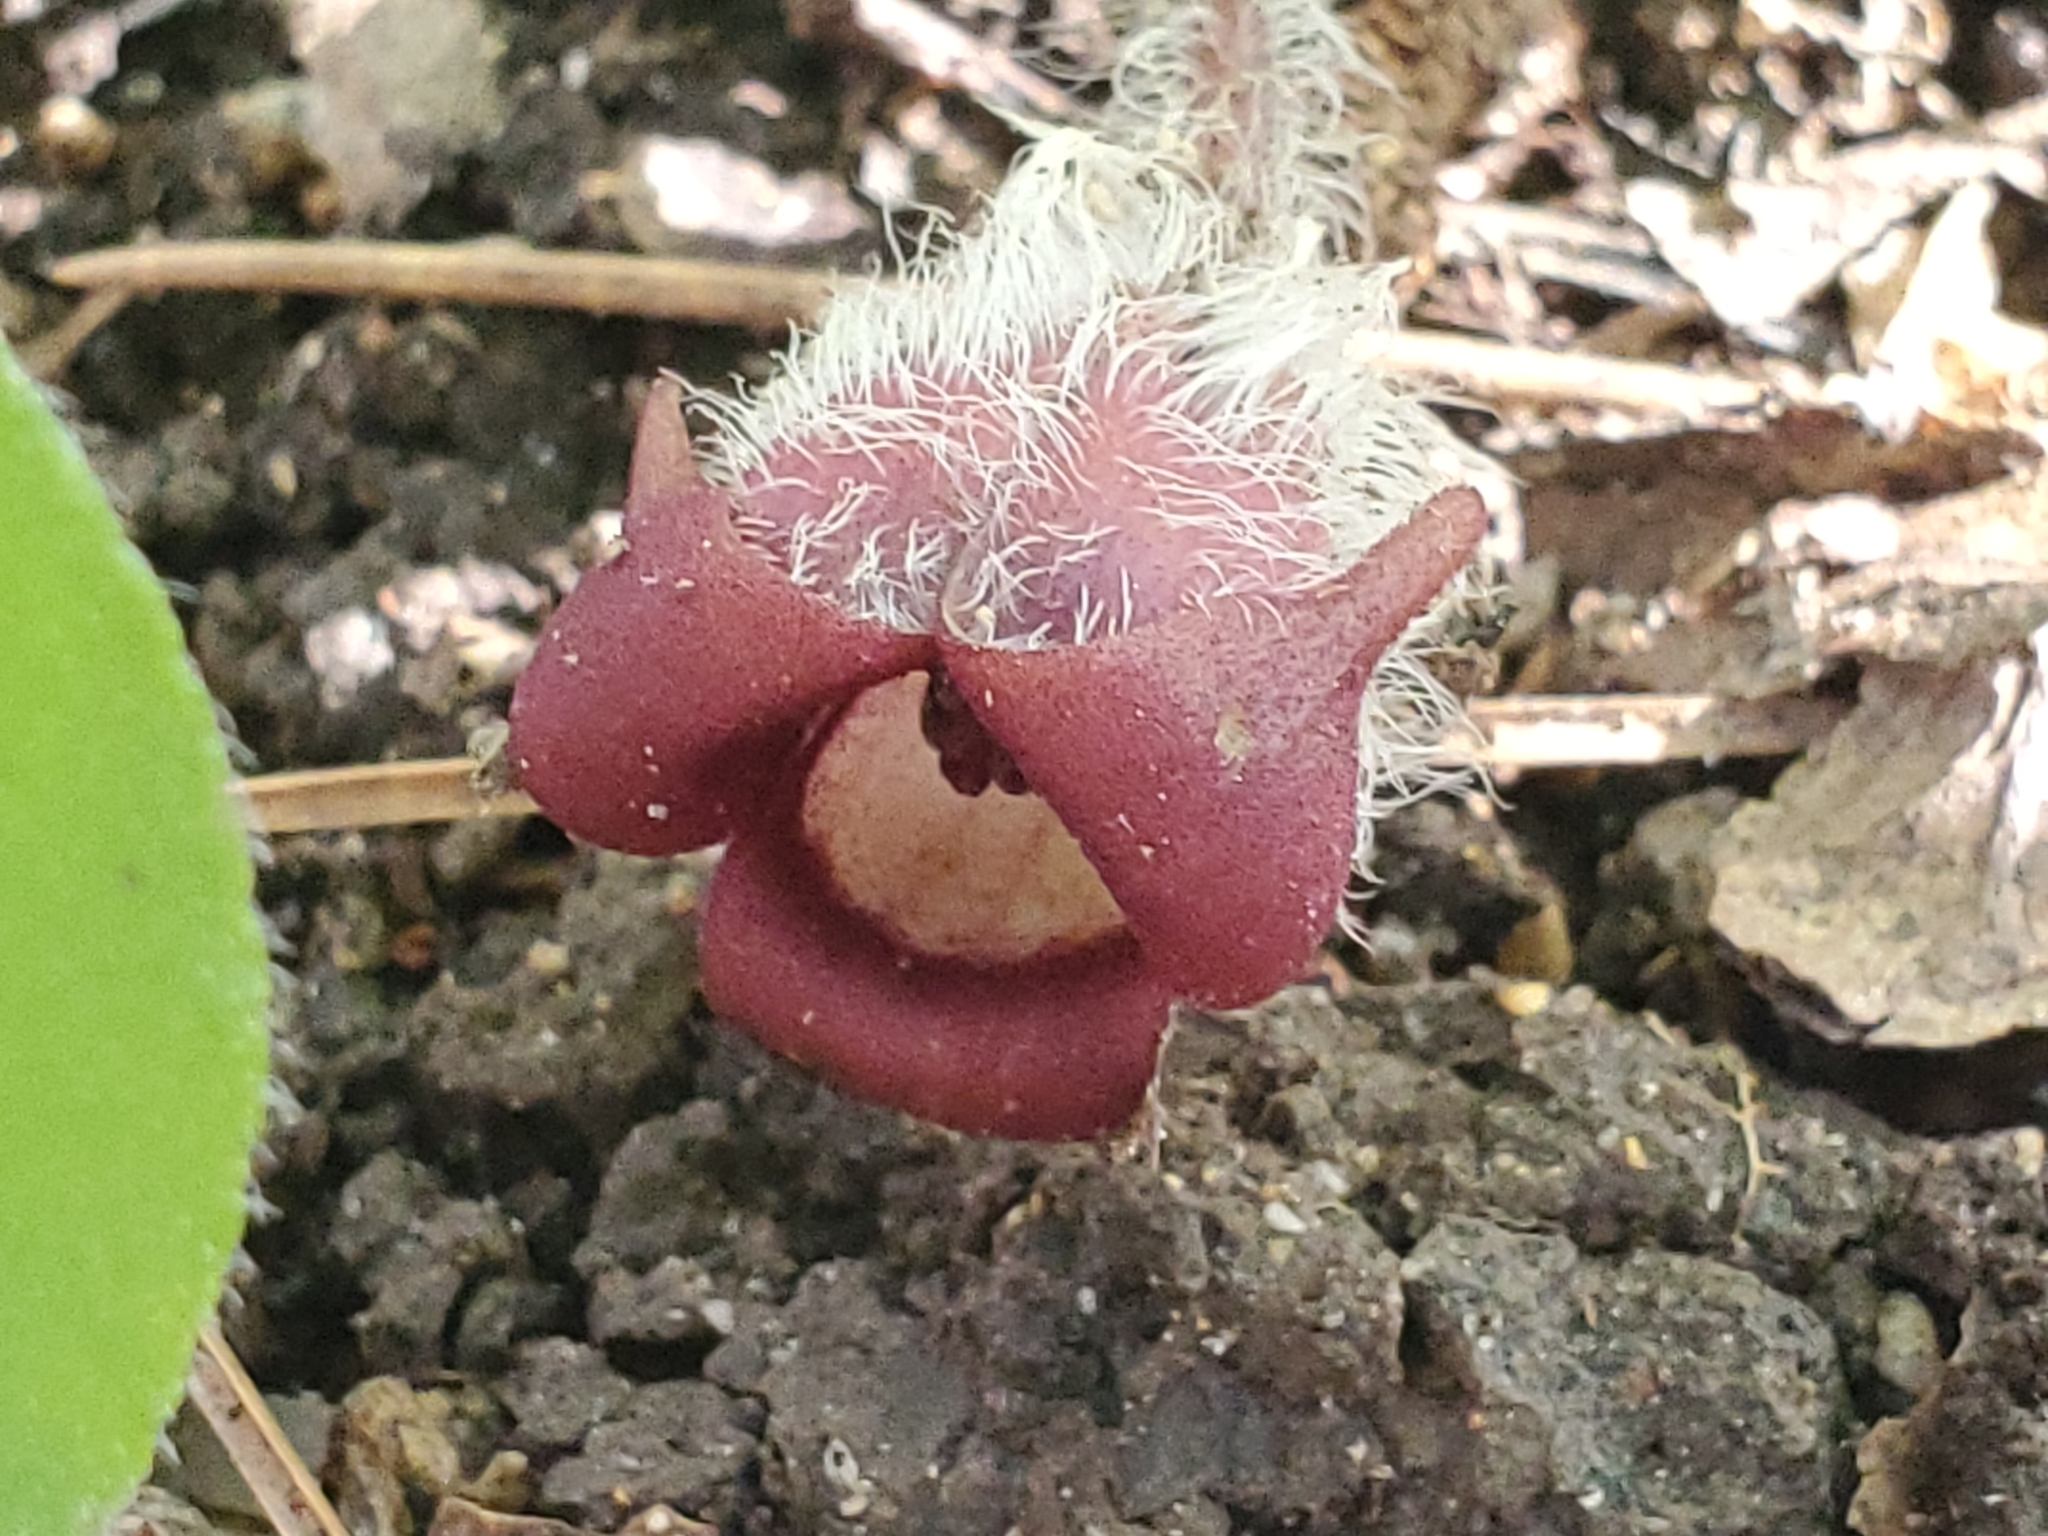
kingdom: Plantae
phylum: Tracheophyta
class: Magnoliopsida
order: Piperales
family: Aristolochiaceae
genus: Asarum
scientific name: Asarum canadense
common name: Wild ginger
